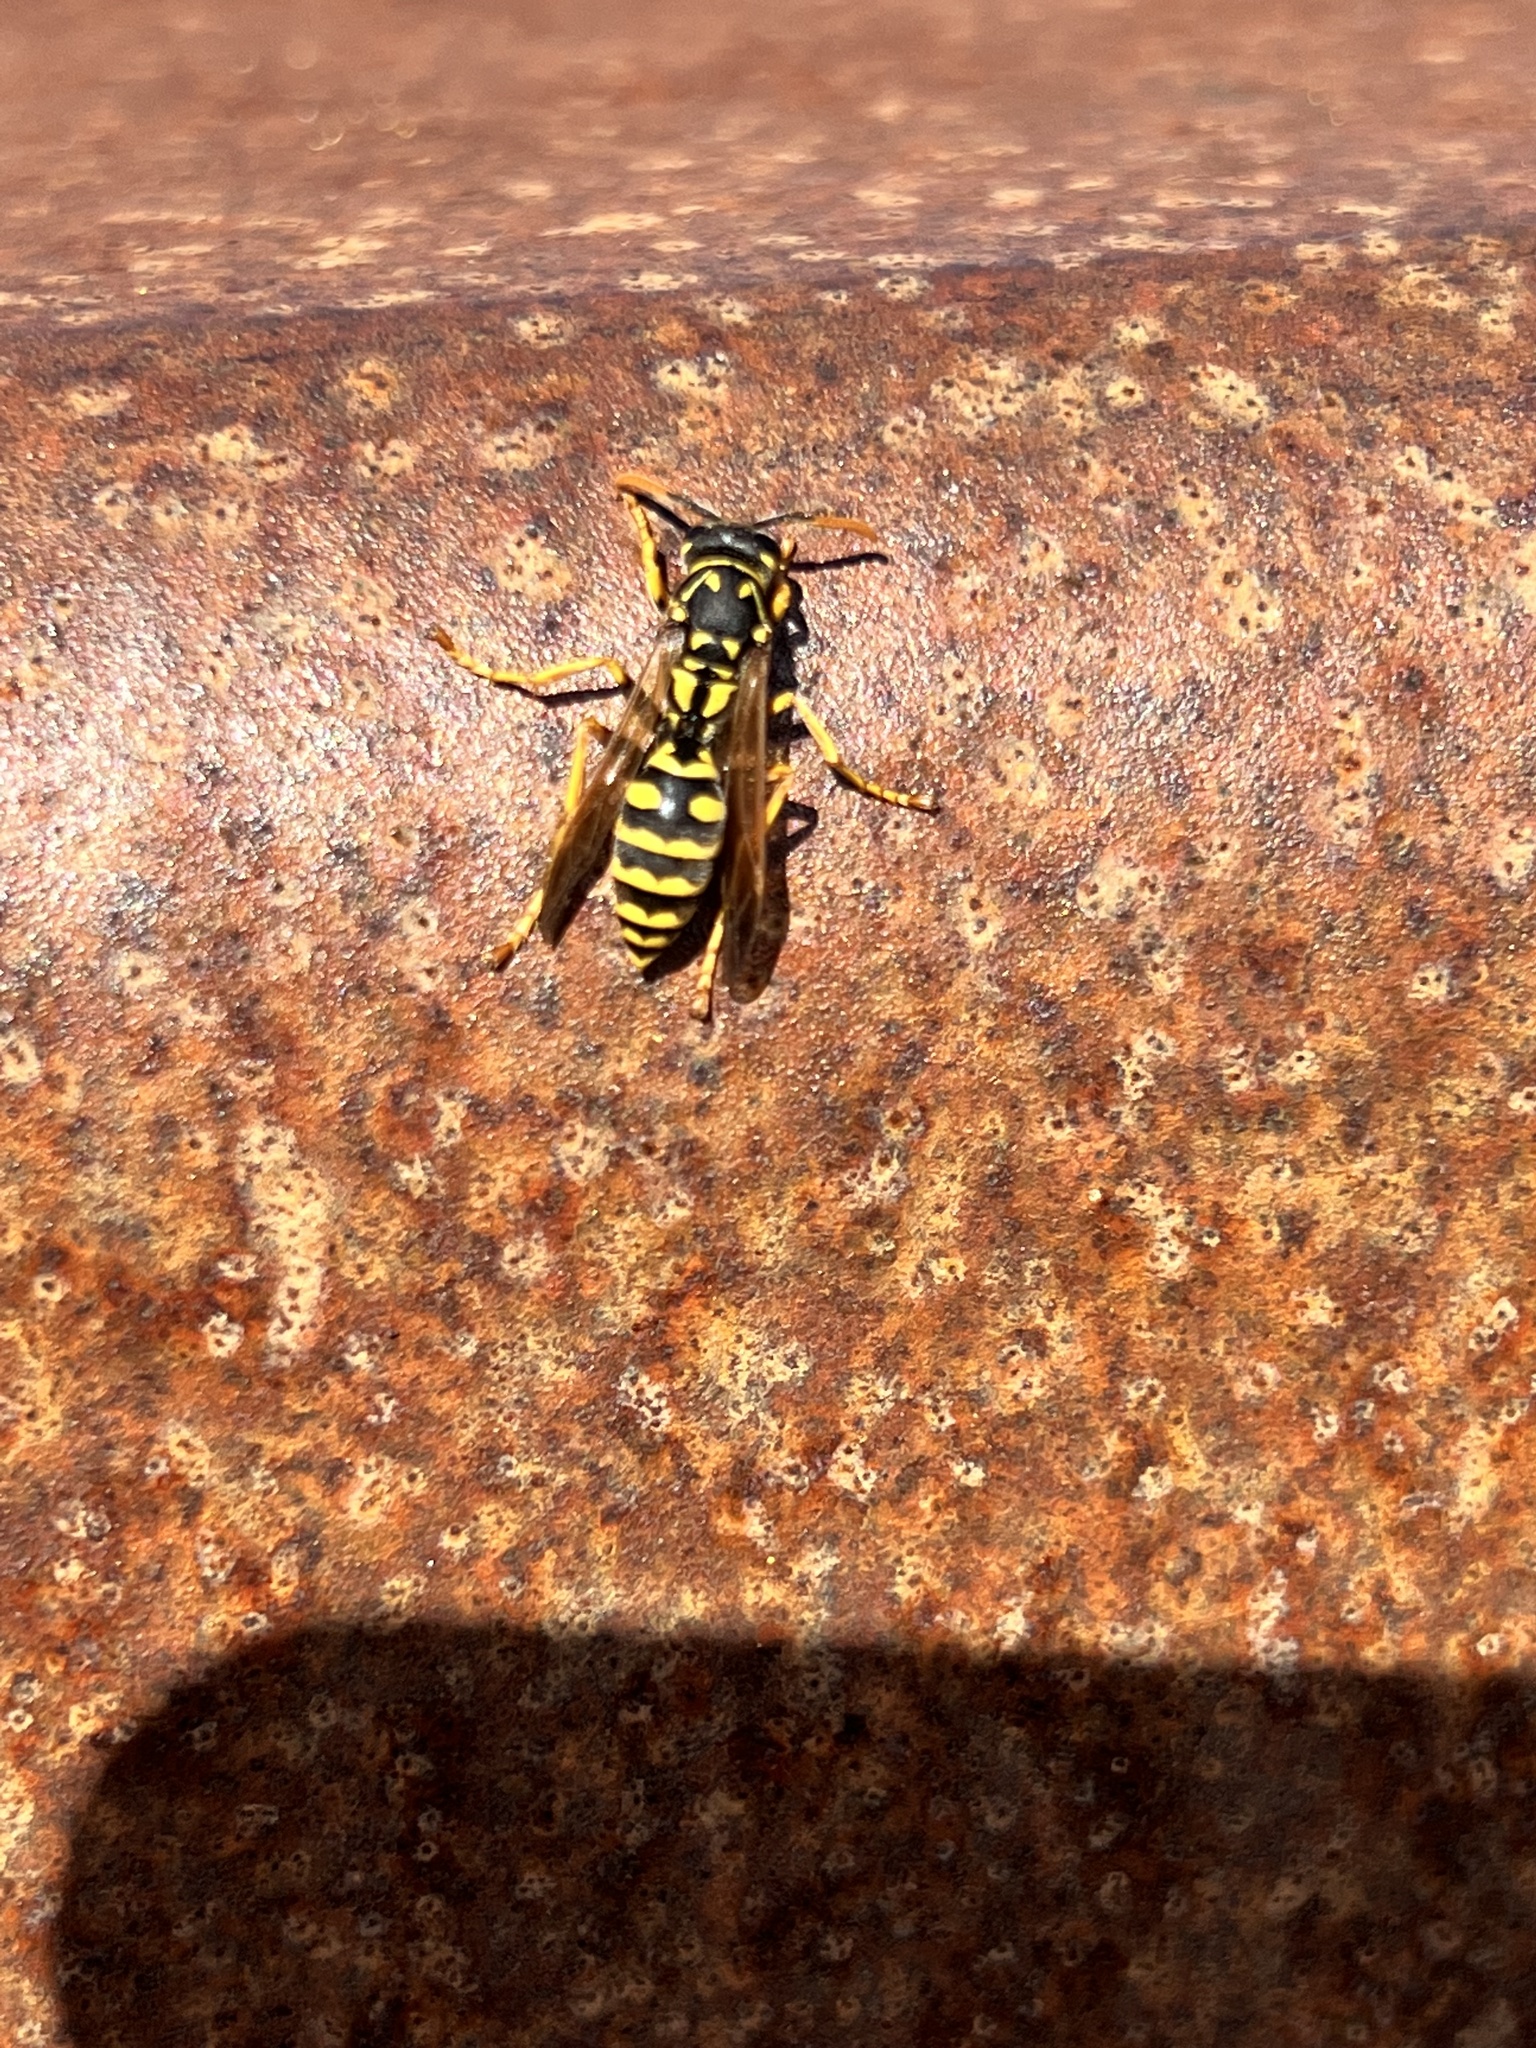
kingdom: Animalia
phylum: Arthropoda
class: Insecta
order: Hymenoptera
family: Eumenidae
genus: Polistes
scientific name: Polistes dominula
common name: Paper wasp
